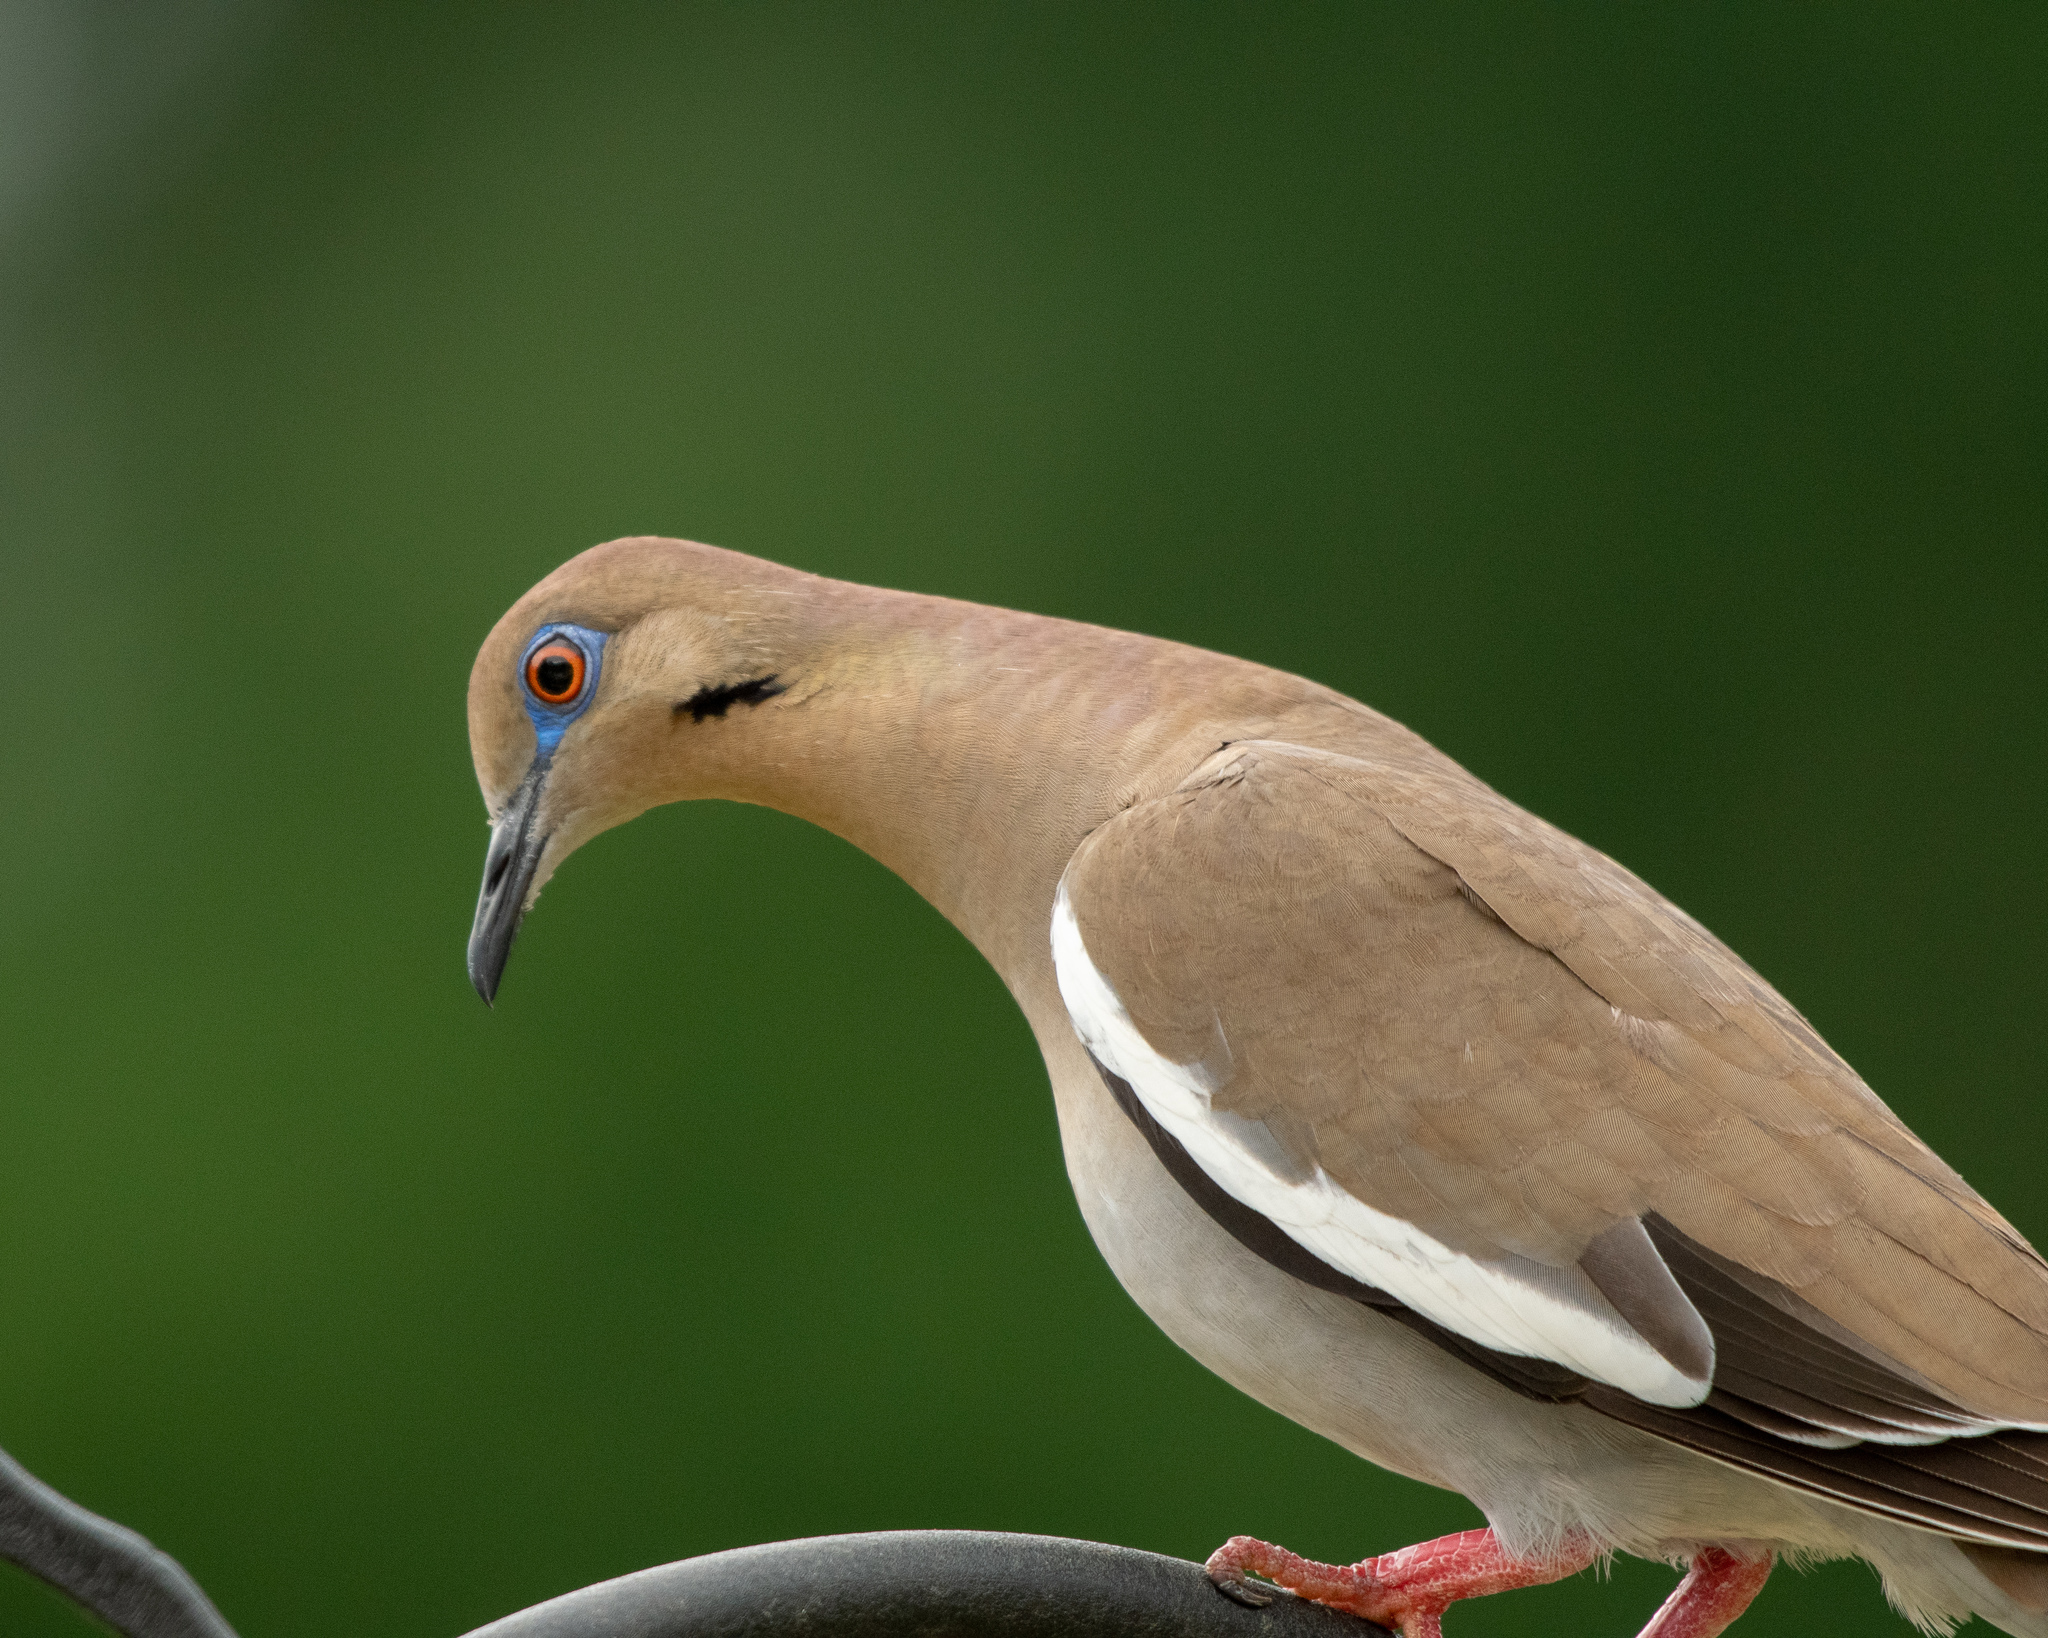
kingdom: Animalia
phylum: Chordata
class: Aves
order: Columbiformes
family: Columbidae
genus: Zenaida
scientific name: Zenaida asiatica
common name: White-winged dove
